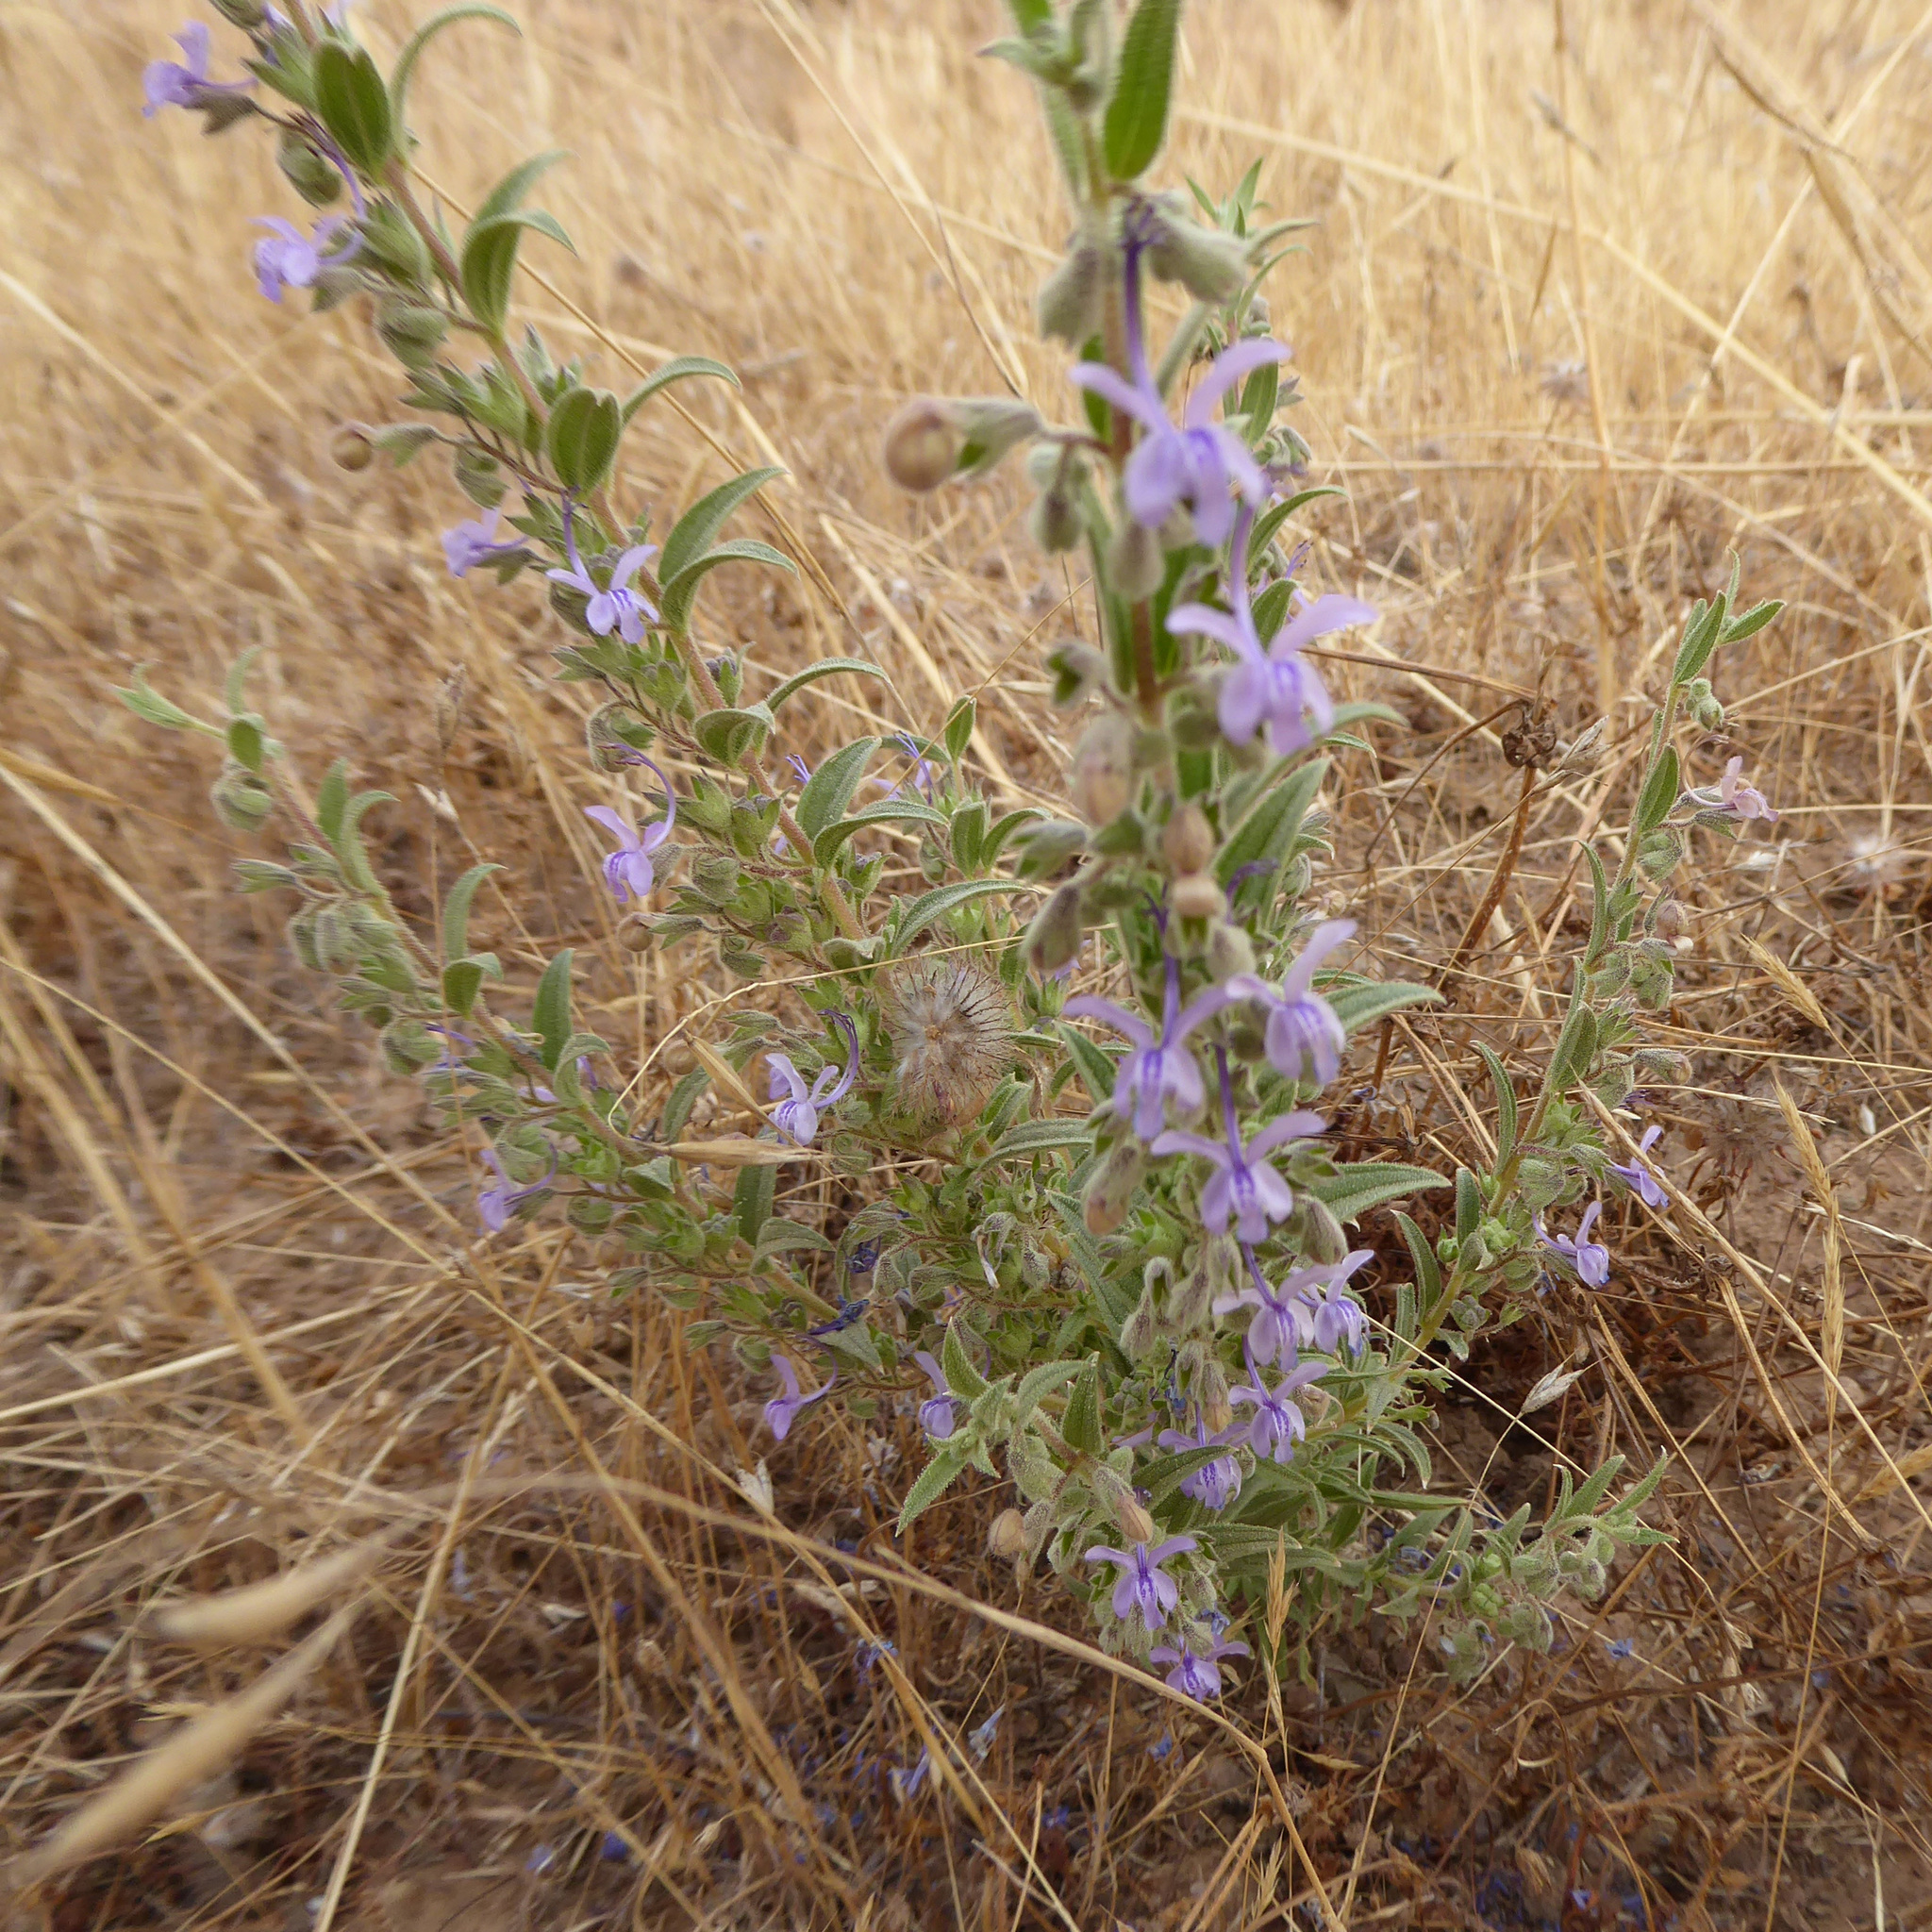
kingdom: Plantae
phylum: Tracheophyta
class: Magnoliopsida
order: Lamiales
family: Lamiaceae
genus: Trichostema
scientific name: Trichostema lanceolatum
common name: Vinegar-weed
